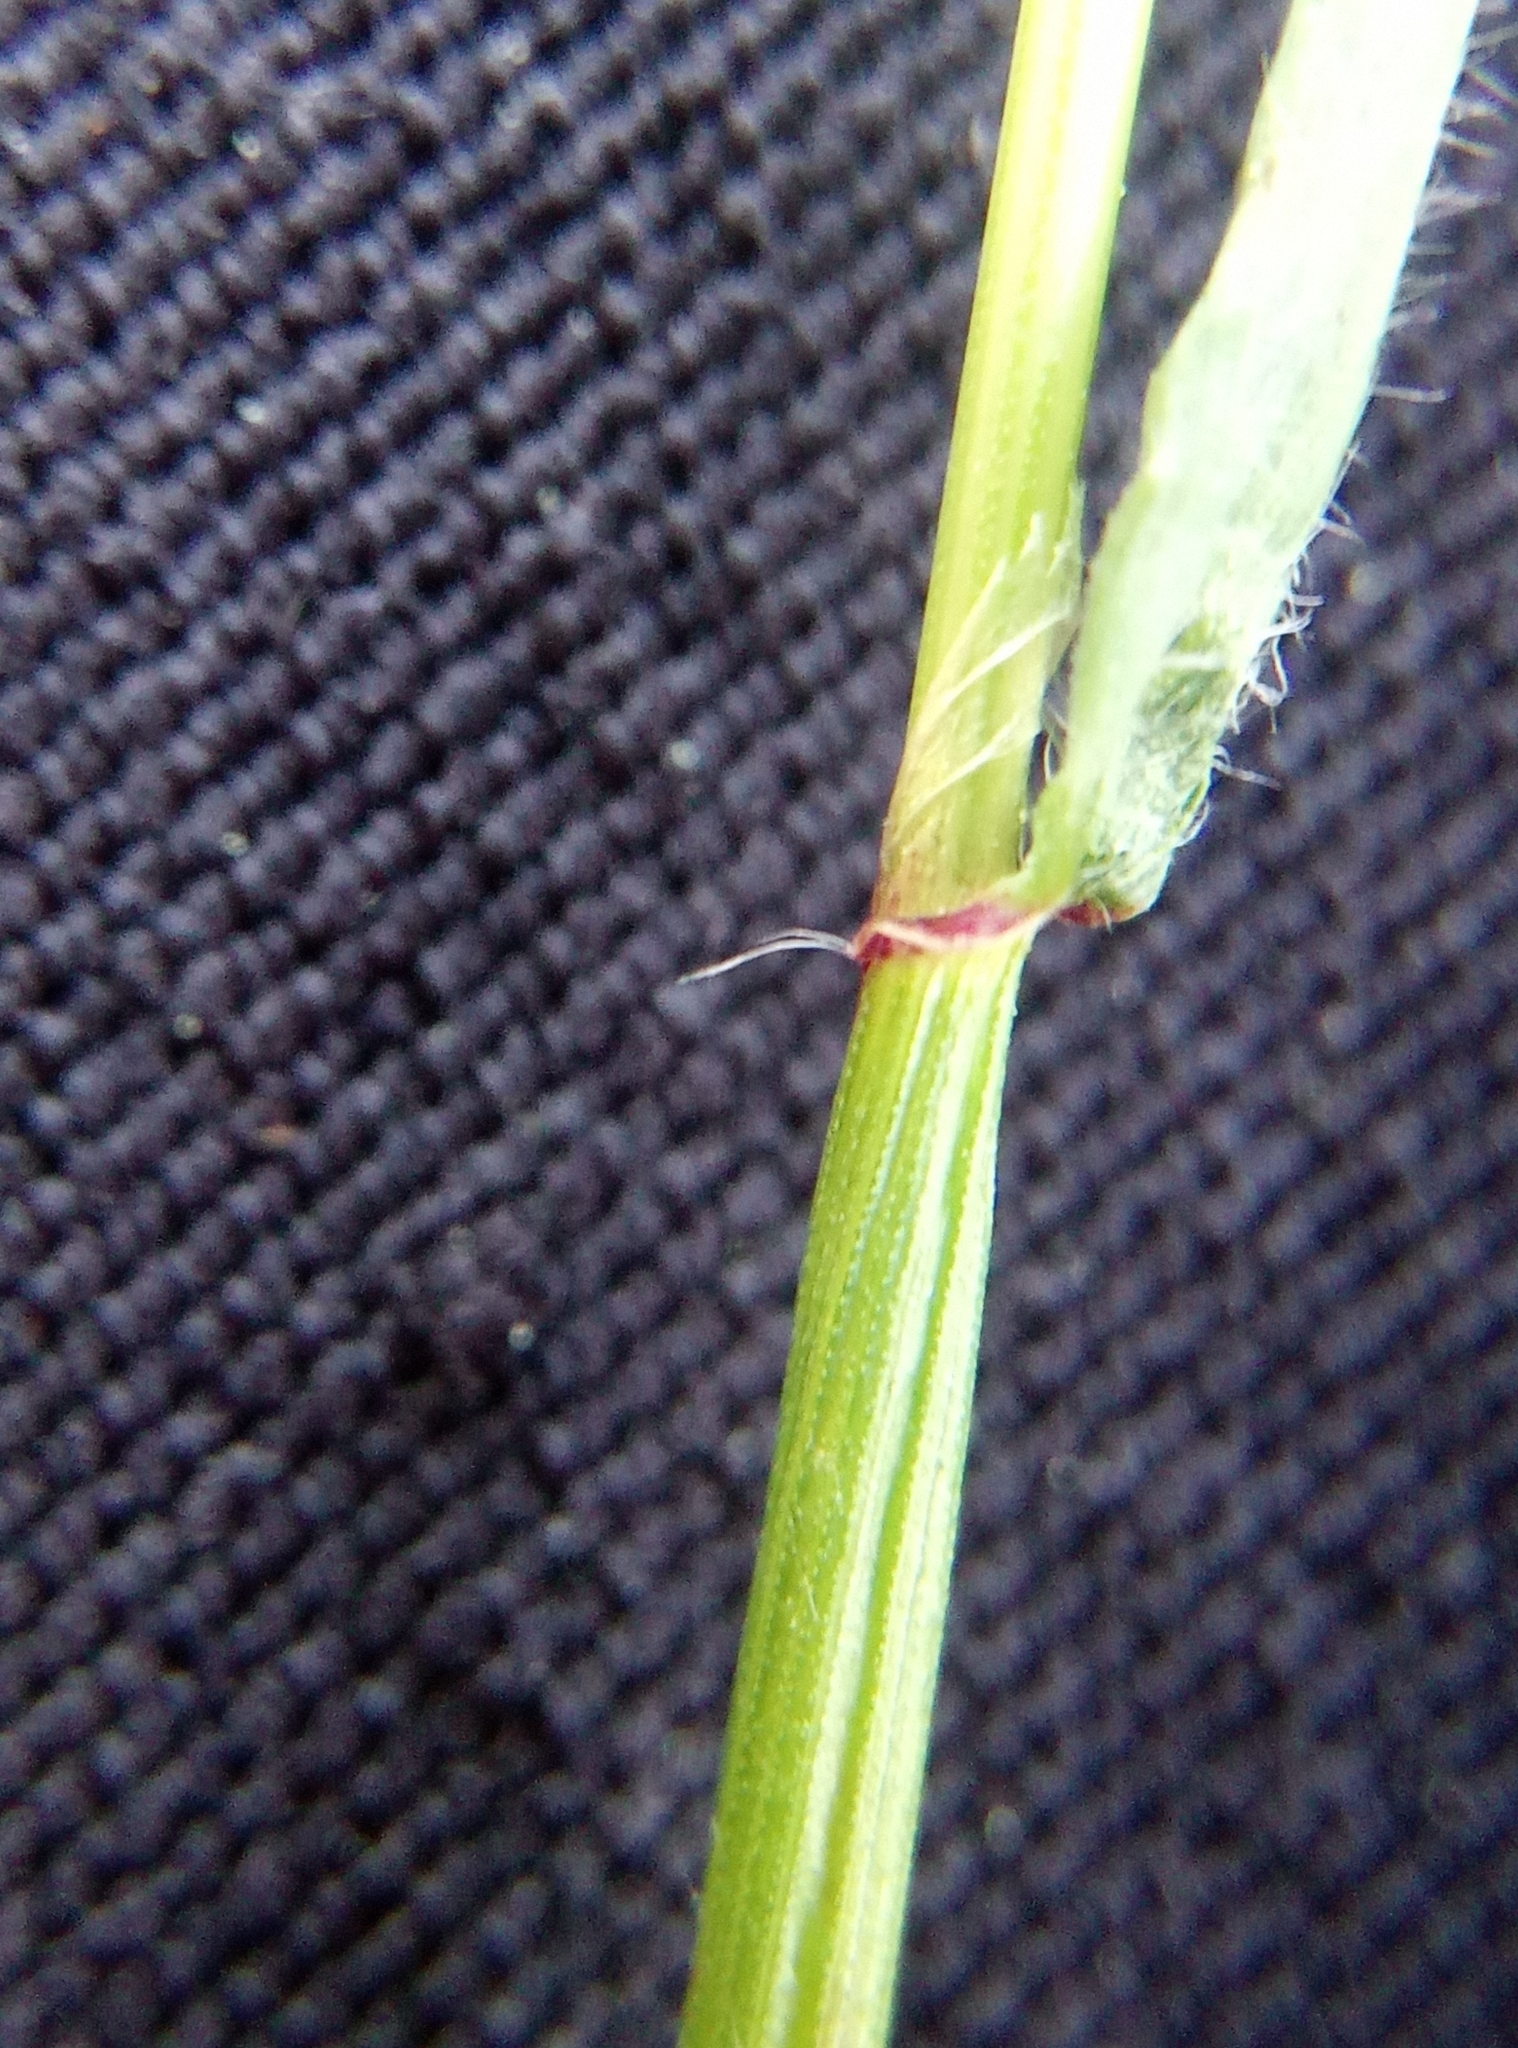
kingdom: Plantae
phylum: Tracheophyta
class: Liliopsida
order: Poales
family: Poaceae
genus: Anthoxanthum
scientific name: Anthoxanthum odoratum
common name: Sweet vernalgrass
